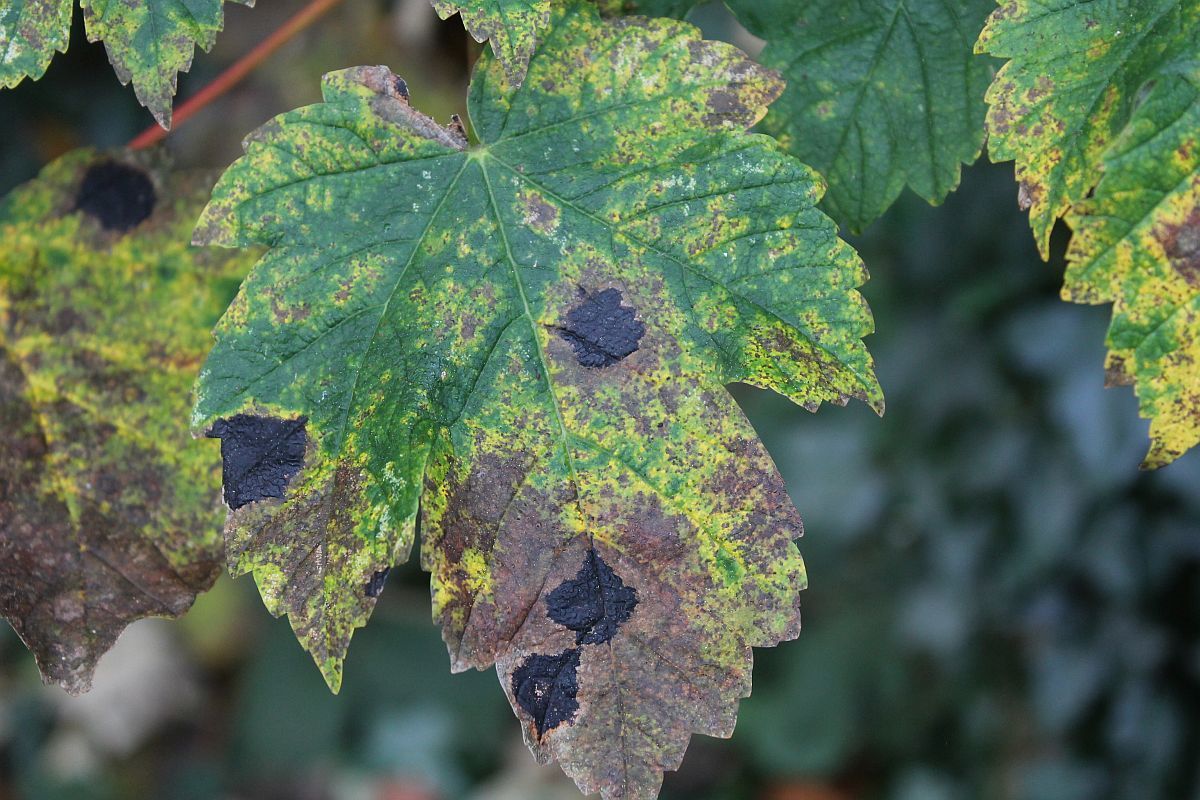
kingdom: Fungi
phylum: Ascomycota
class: Leotiomycetes
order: Rhytismatales
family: Rhytismataceae
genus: Rhytisma
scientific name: Rhytisma acerinum
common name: European tar spot
